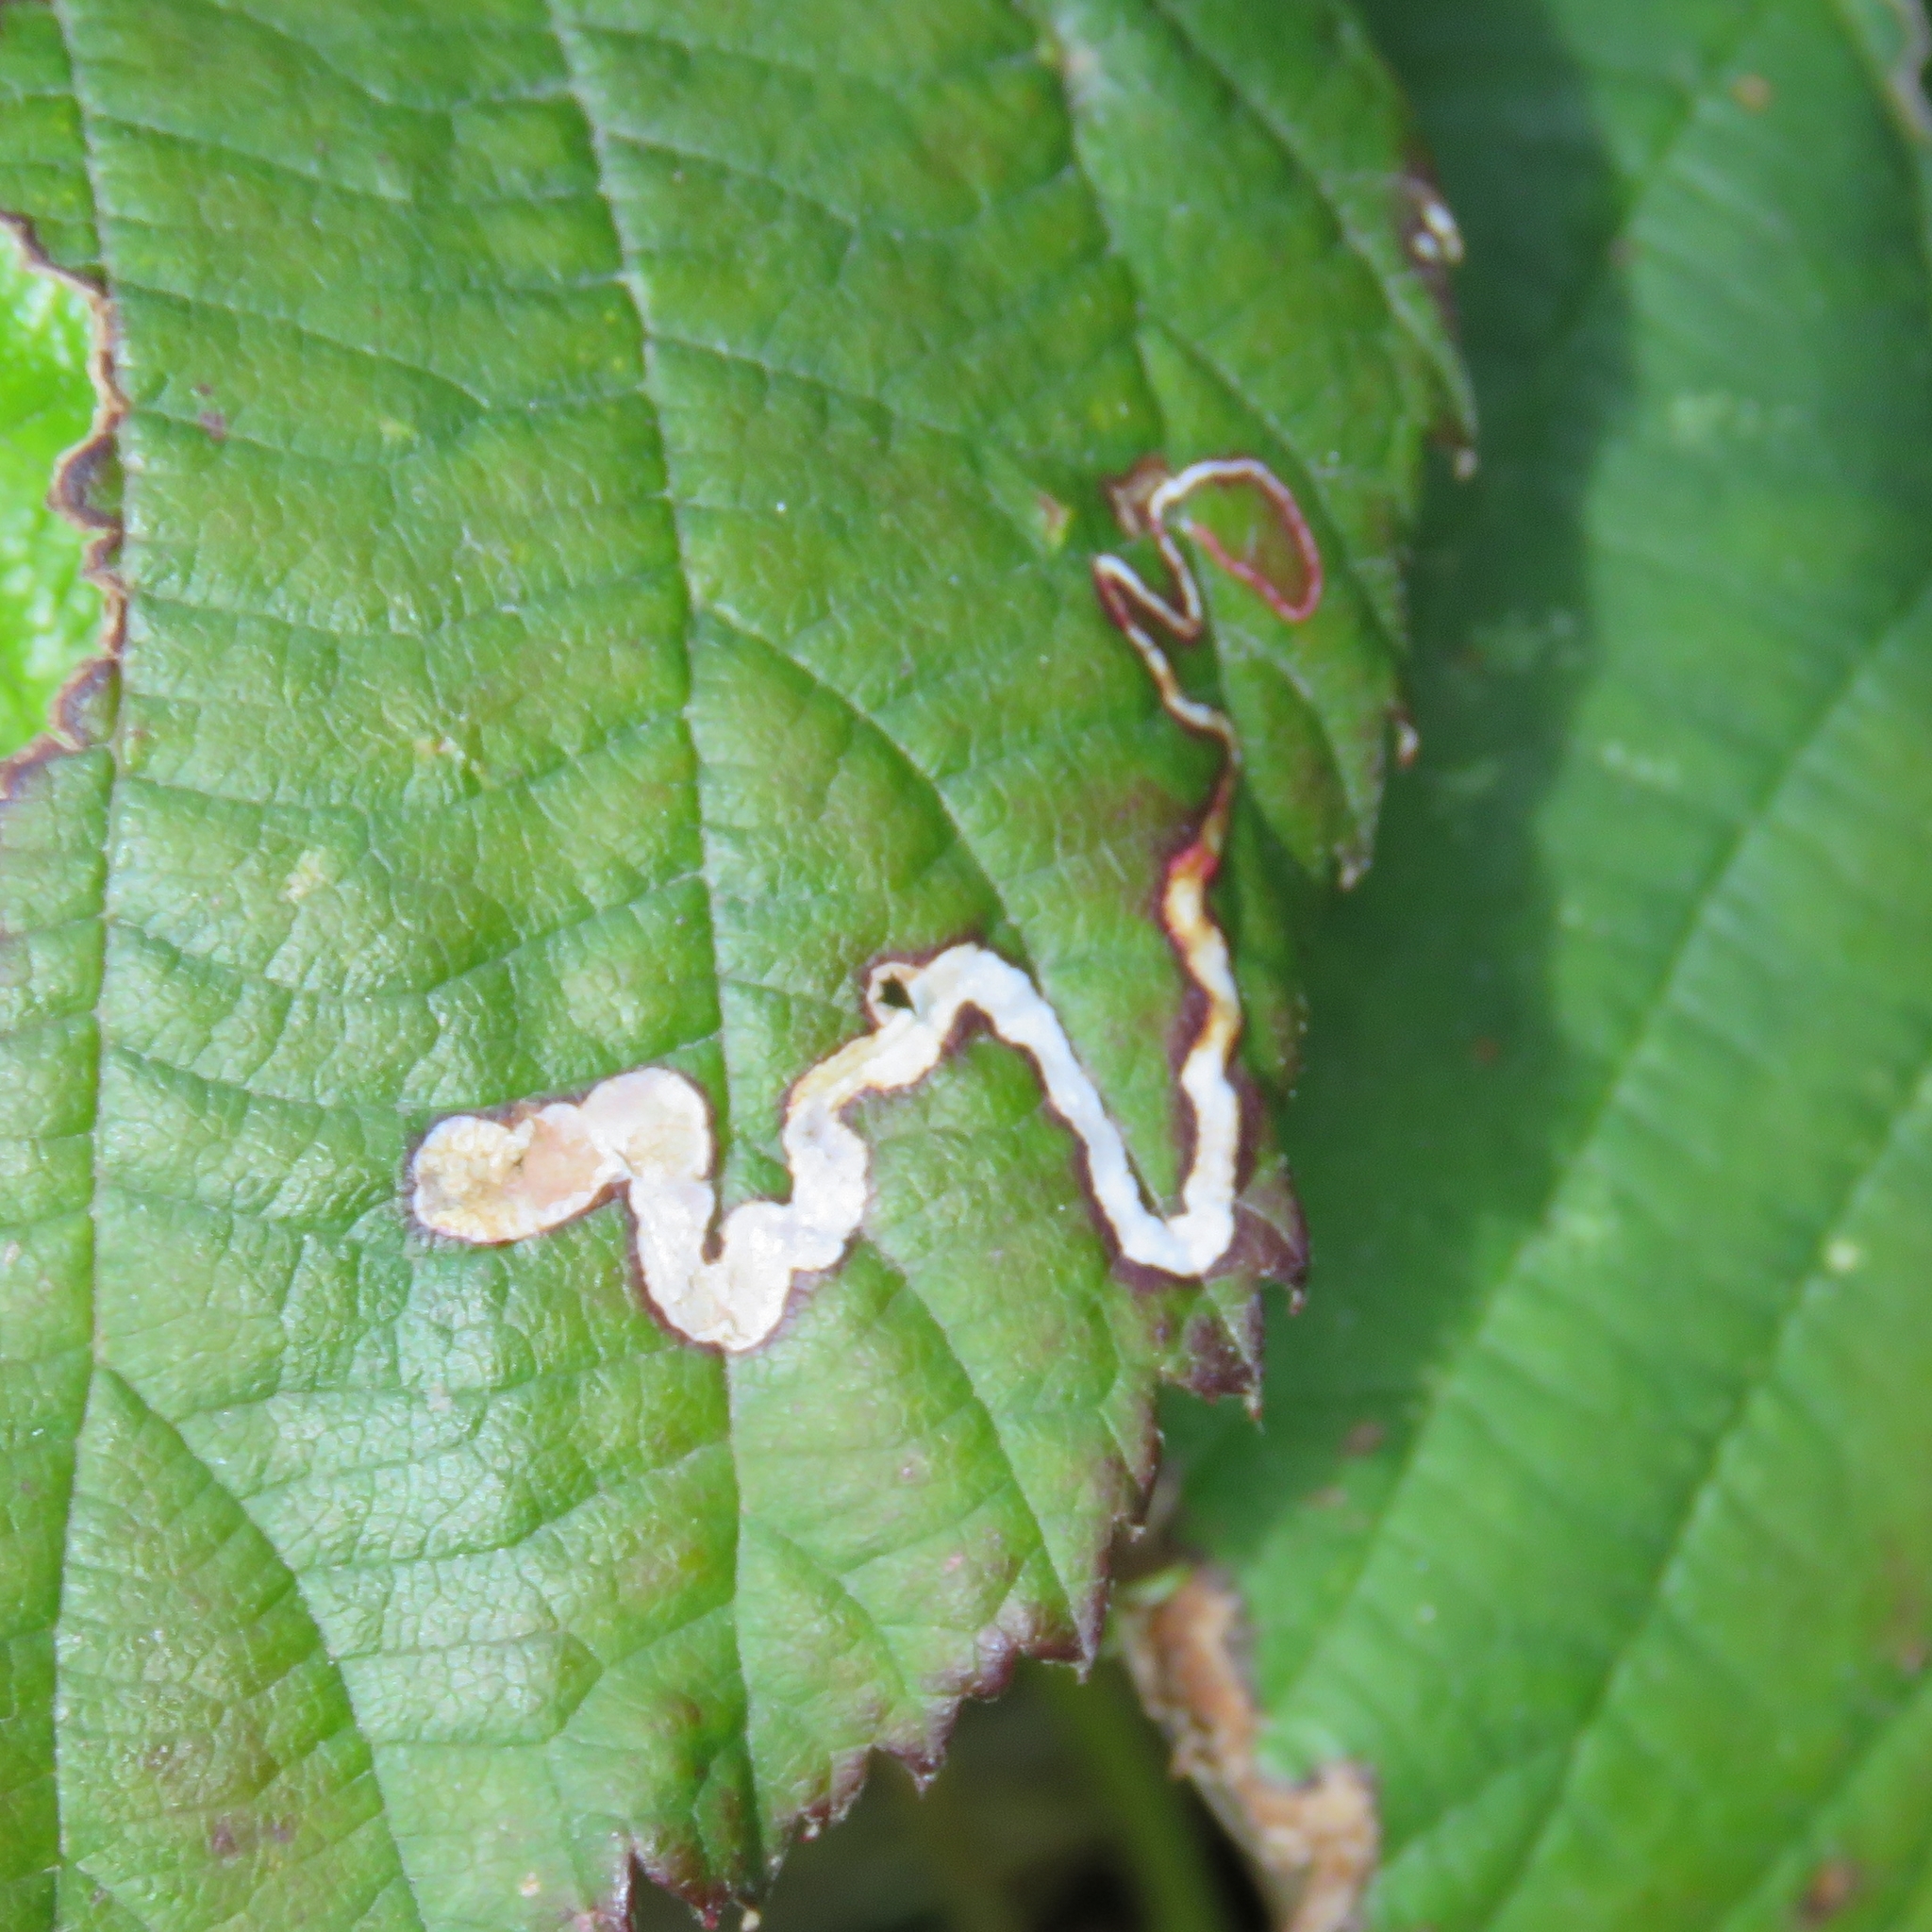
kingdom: Animalia
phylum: Arthropoda
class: Insecta
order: Lepidoptera
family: Nepticulidae
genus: Stigmella
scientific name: Stigmella aurella
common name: Golden pigmy
